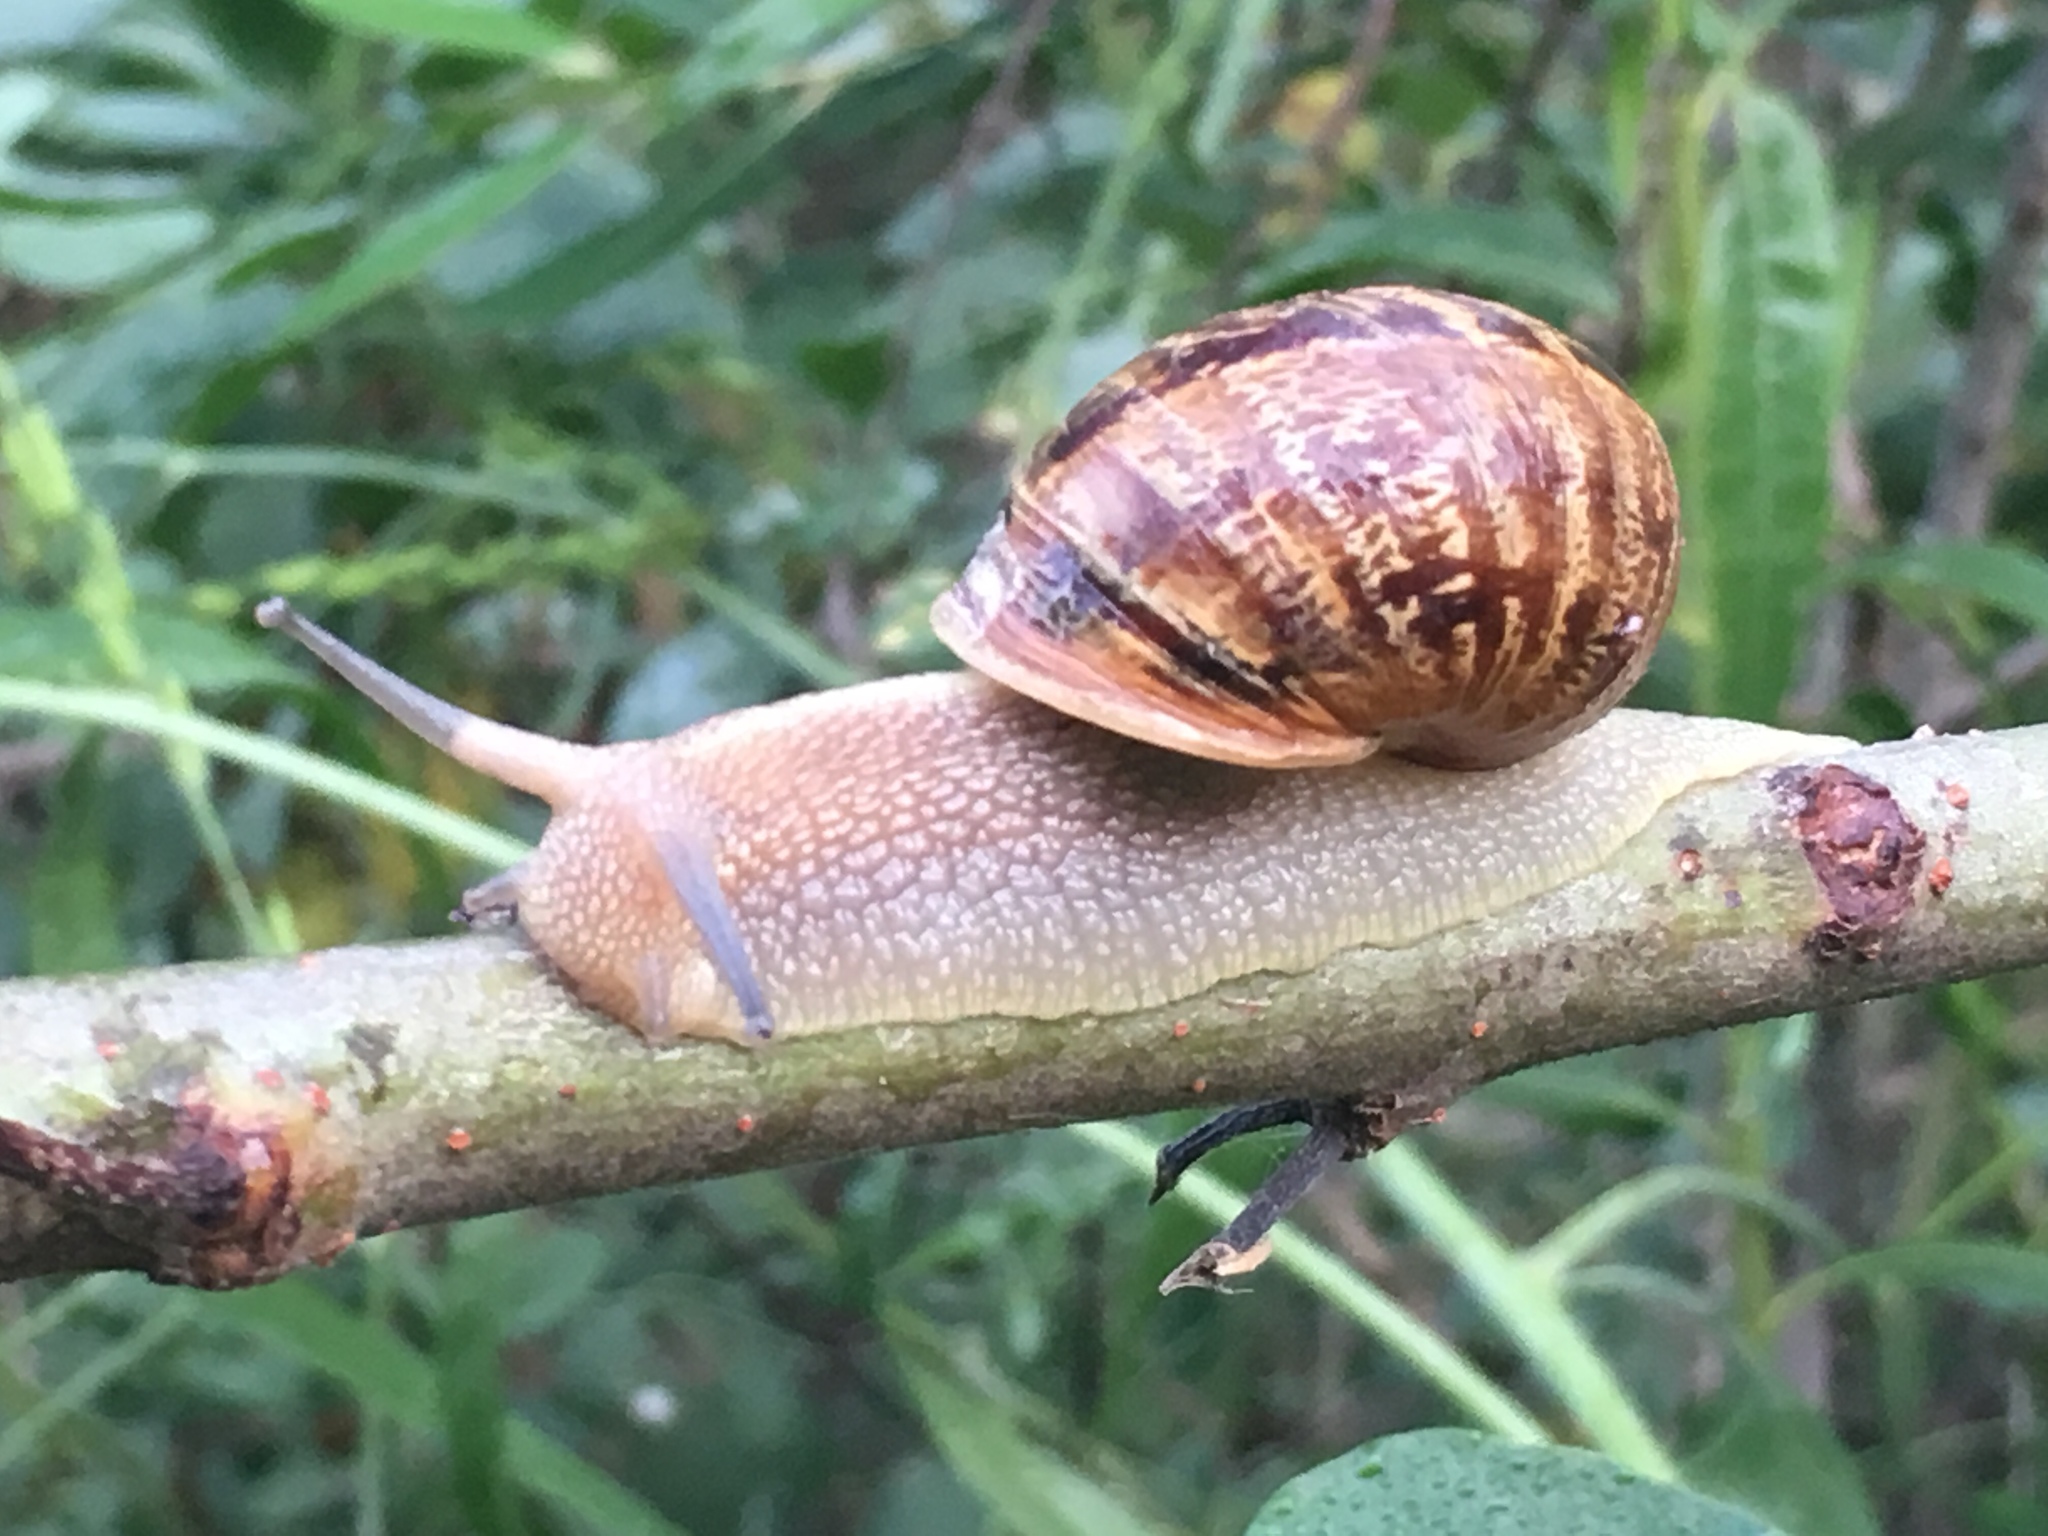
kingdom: Animalia
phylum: Mollusca
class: Gastropoda
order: Stylommatophora
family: Helicidae
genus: Cornu
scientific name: Cornu aspersum
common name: Brown garden snail
